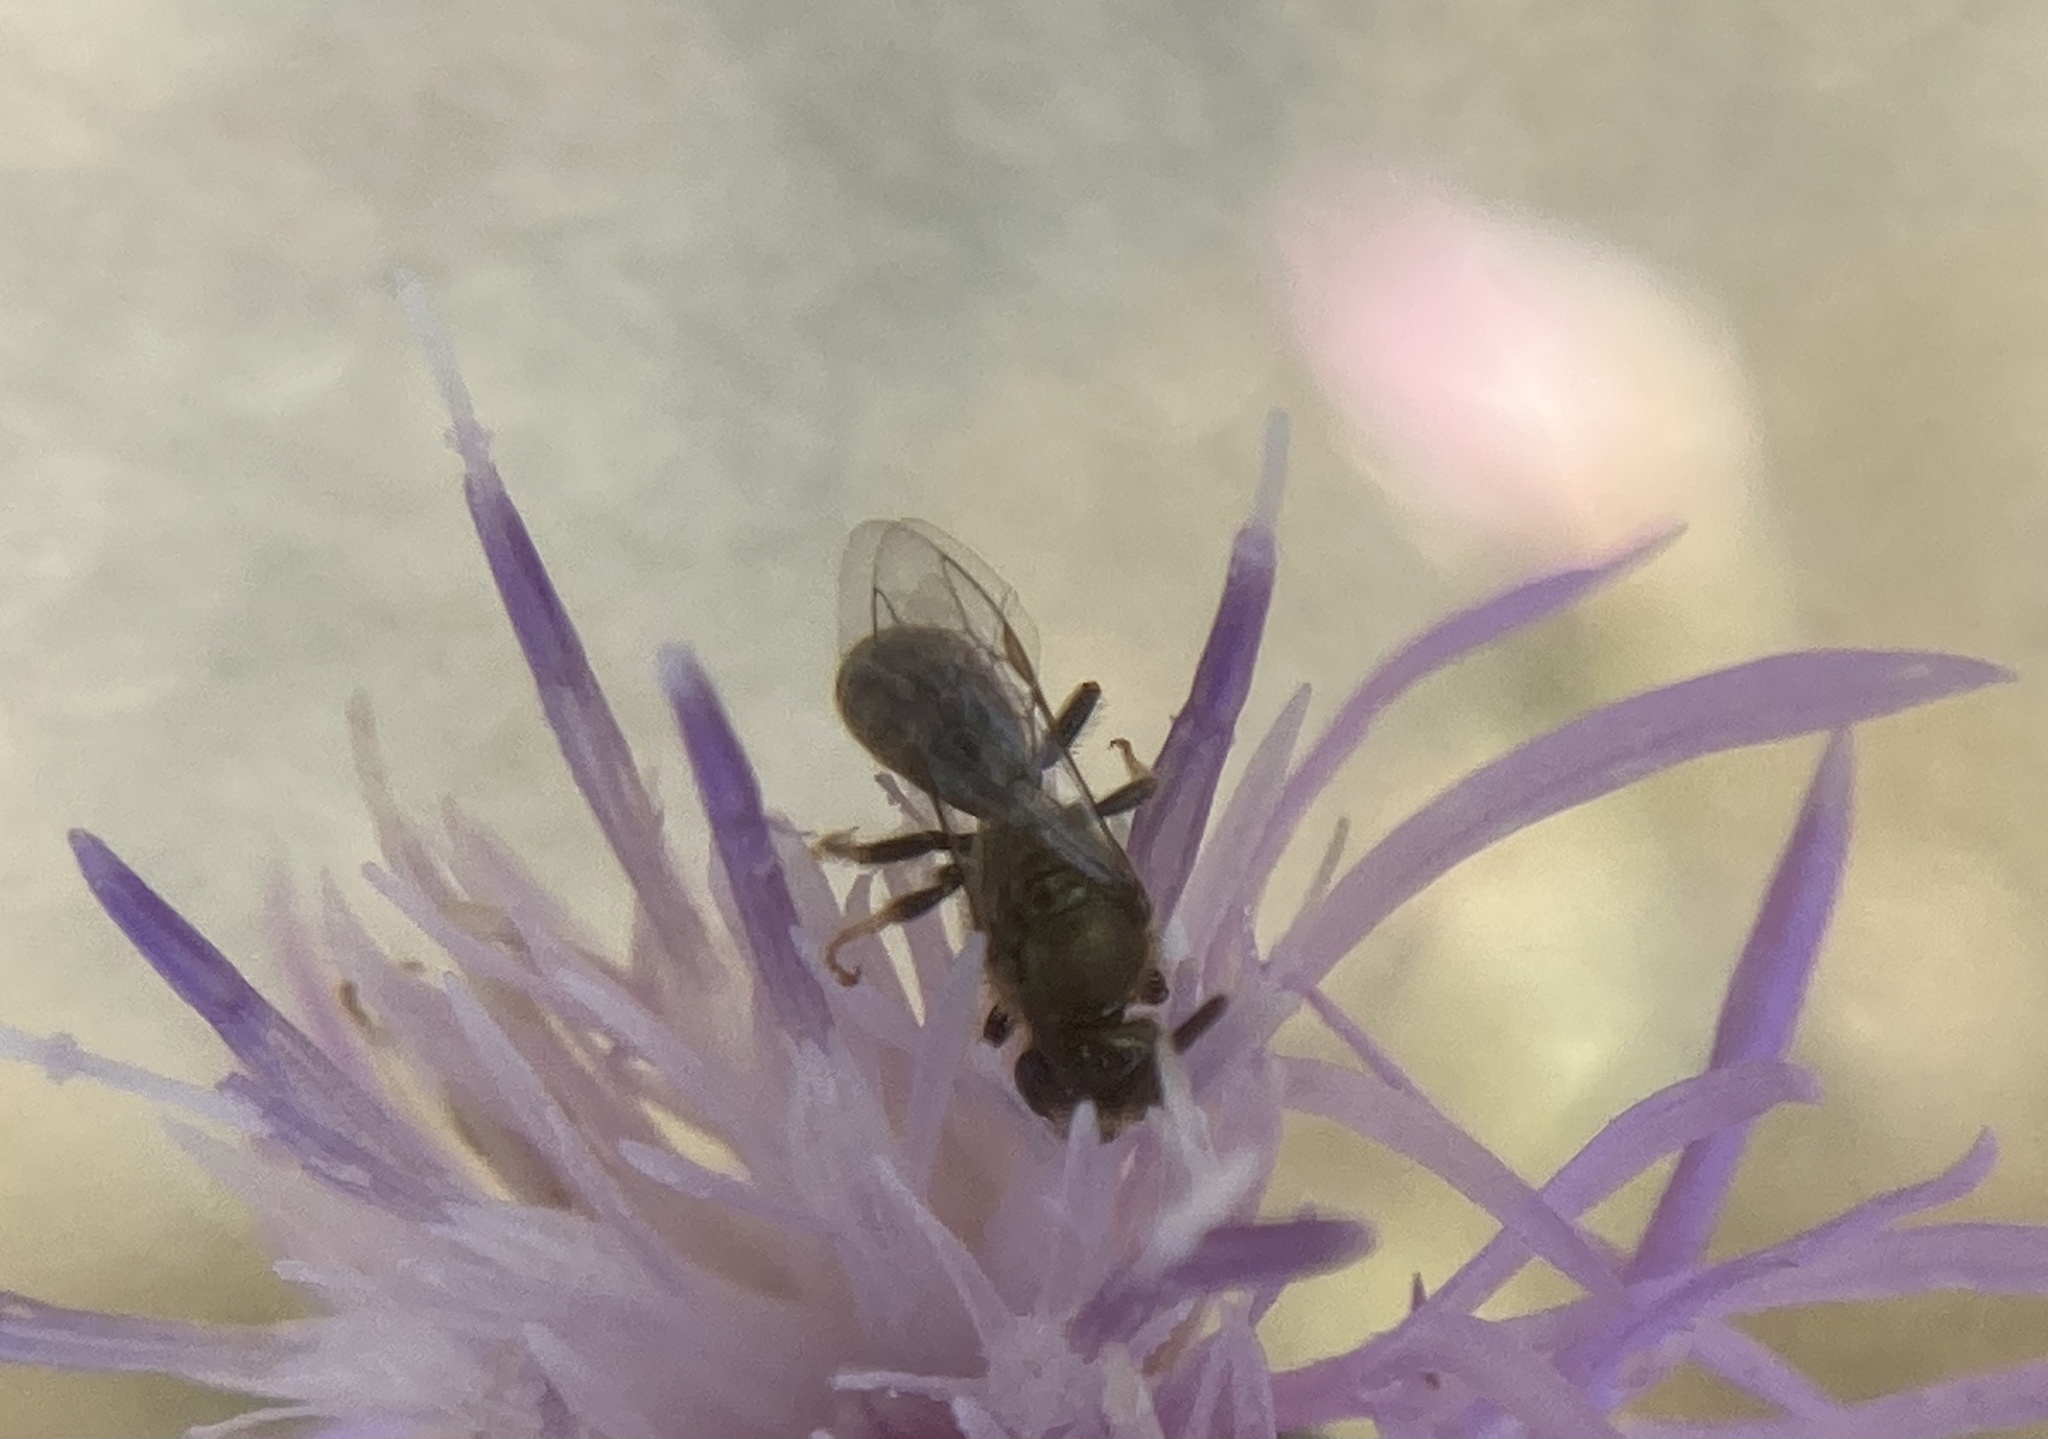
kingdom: Animalia
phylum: Arthropoda
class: Insecta
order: Hymenoptera
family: Halictidae
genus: Dialictus
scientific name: Dialictus
